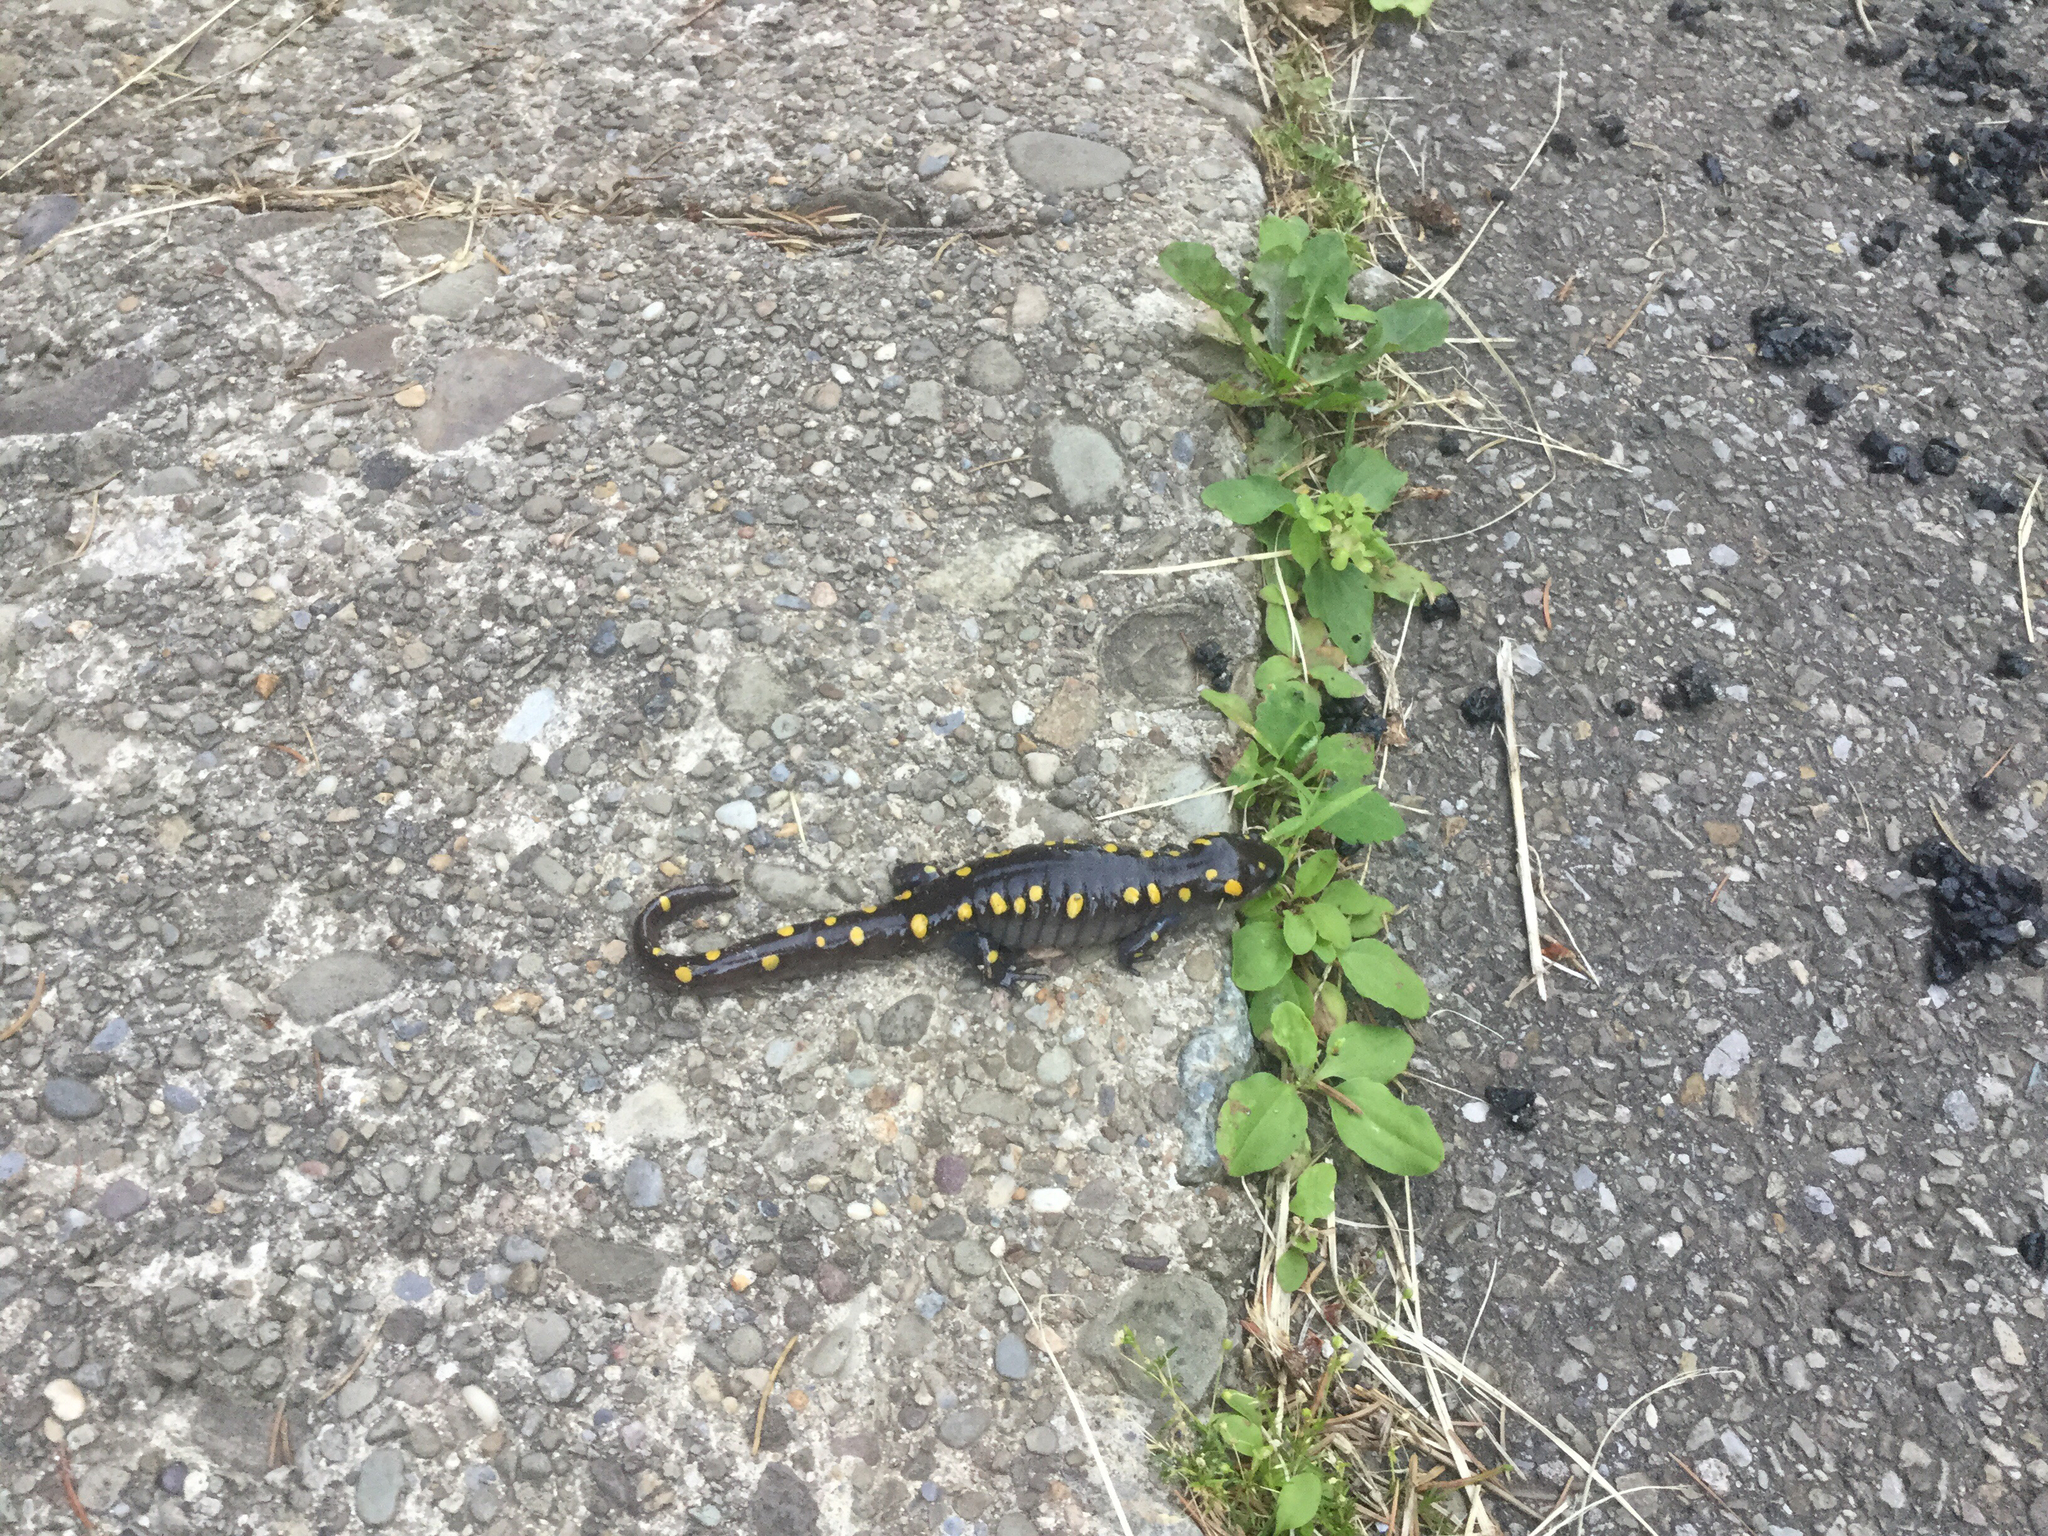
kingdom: Animalia
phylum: Chordata
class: Amphibia
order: Caudata
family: Ambystomatidae
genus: Ambystoma
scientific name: Ambystoma maculatum
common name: Spotted salamander
